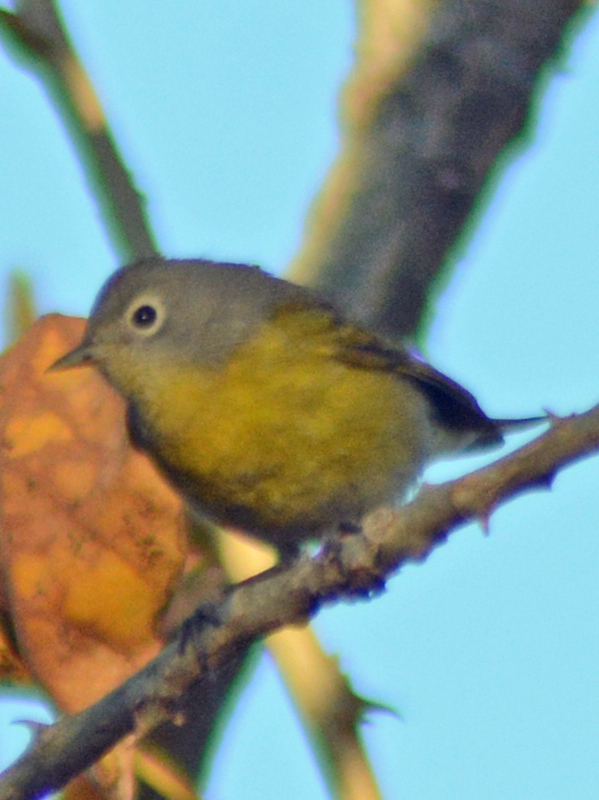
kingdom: Animalia
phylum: Chordata
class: Aves
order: Passeriformes
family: Parulidae
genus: Leiothlypis
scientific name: Leiothlypis ruficapilla
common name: Nashville warbler
